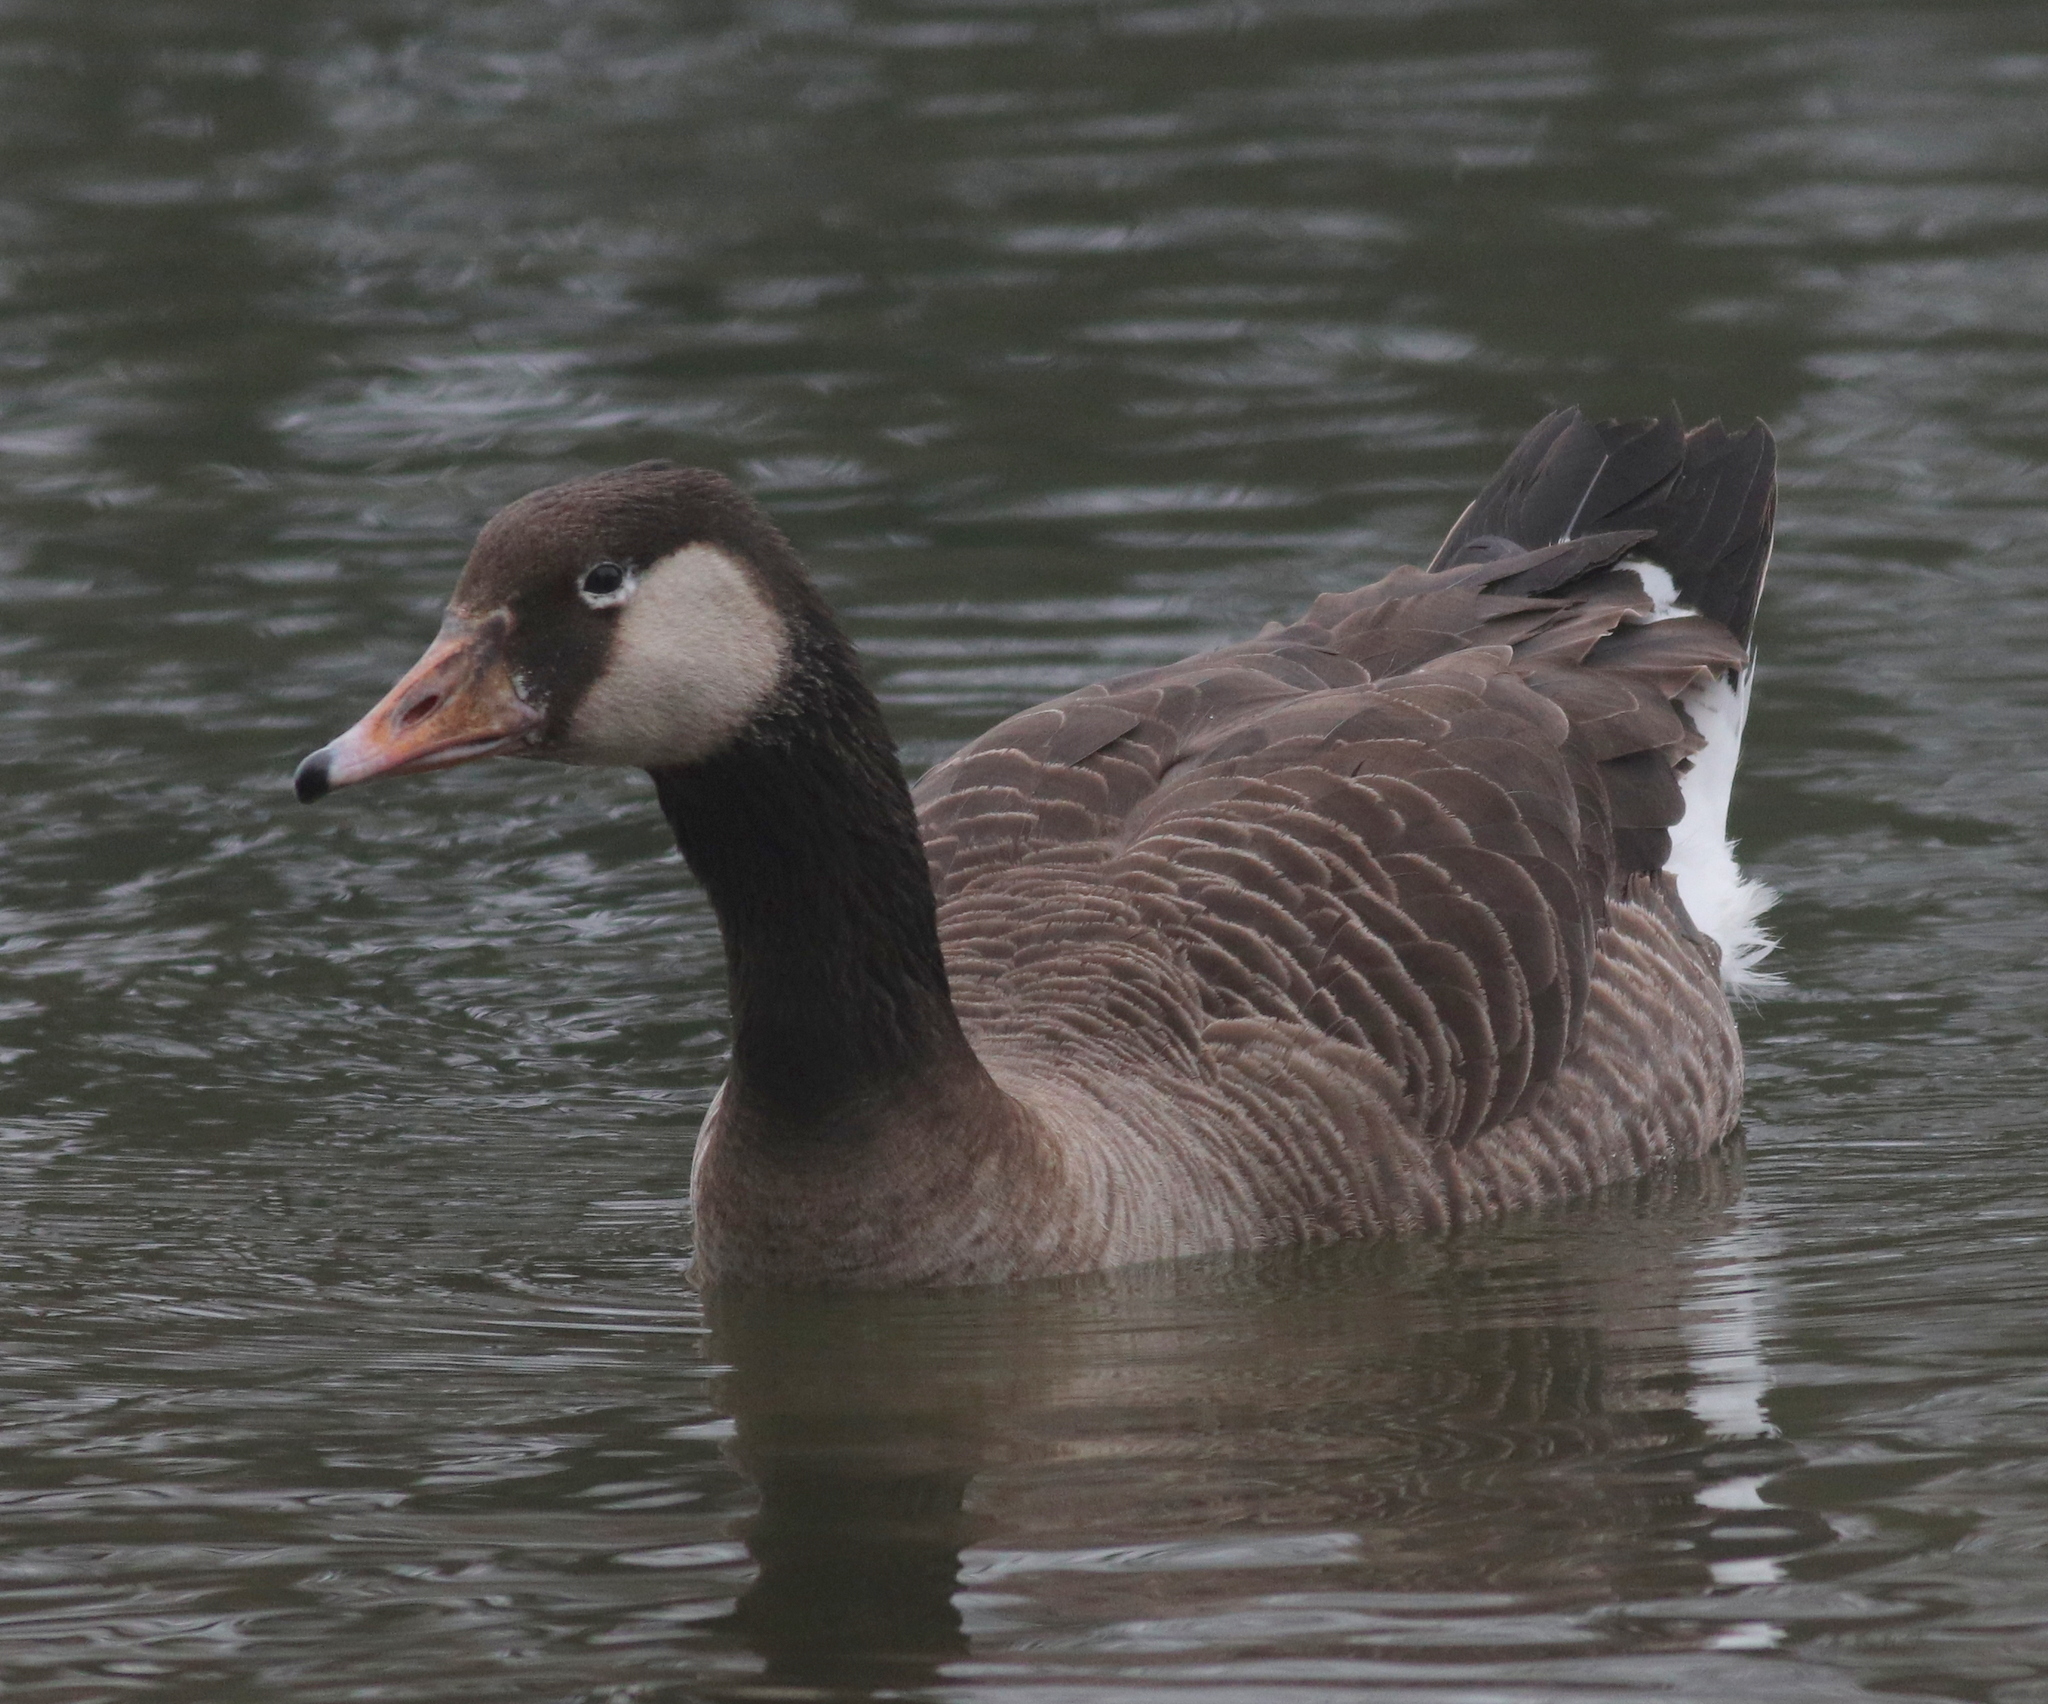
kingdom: Animalia
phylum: Chordata
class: Aves
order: Anseriformes
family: Anatidae
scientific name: Anatidae
